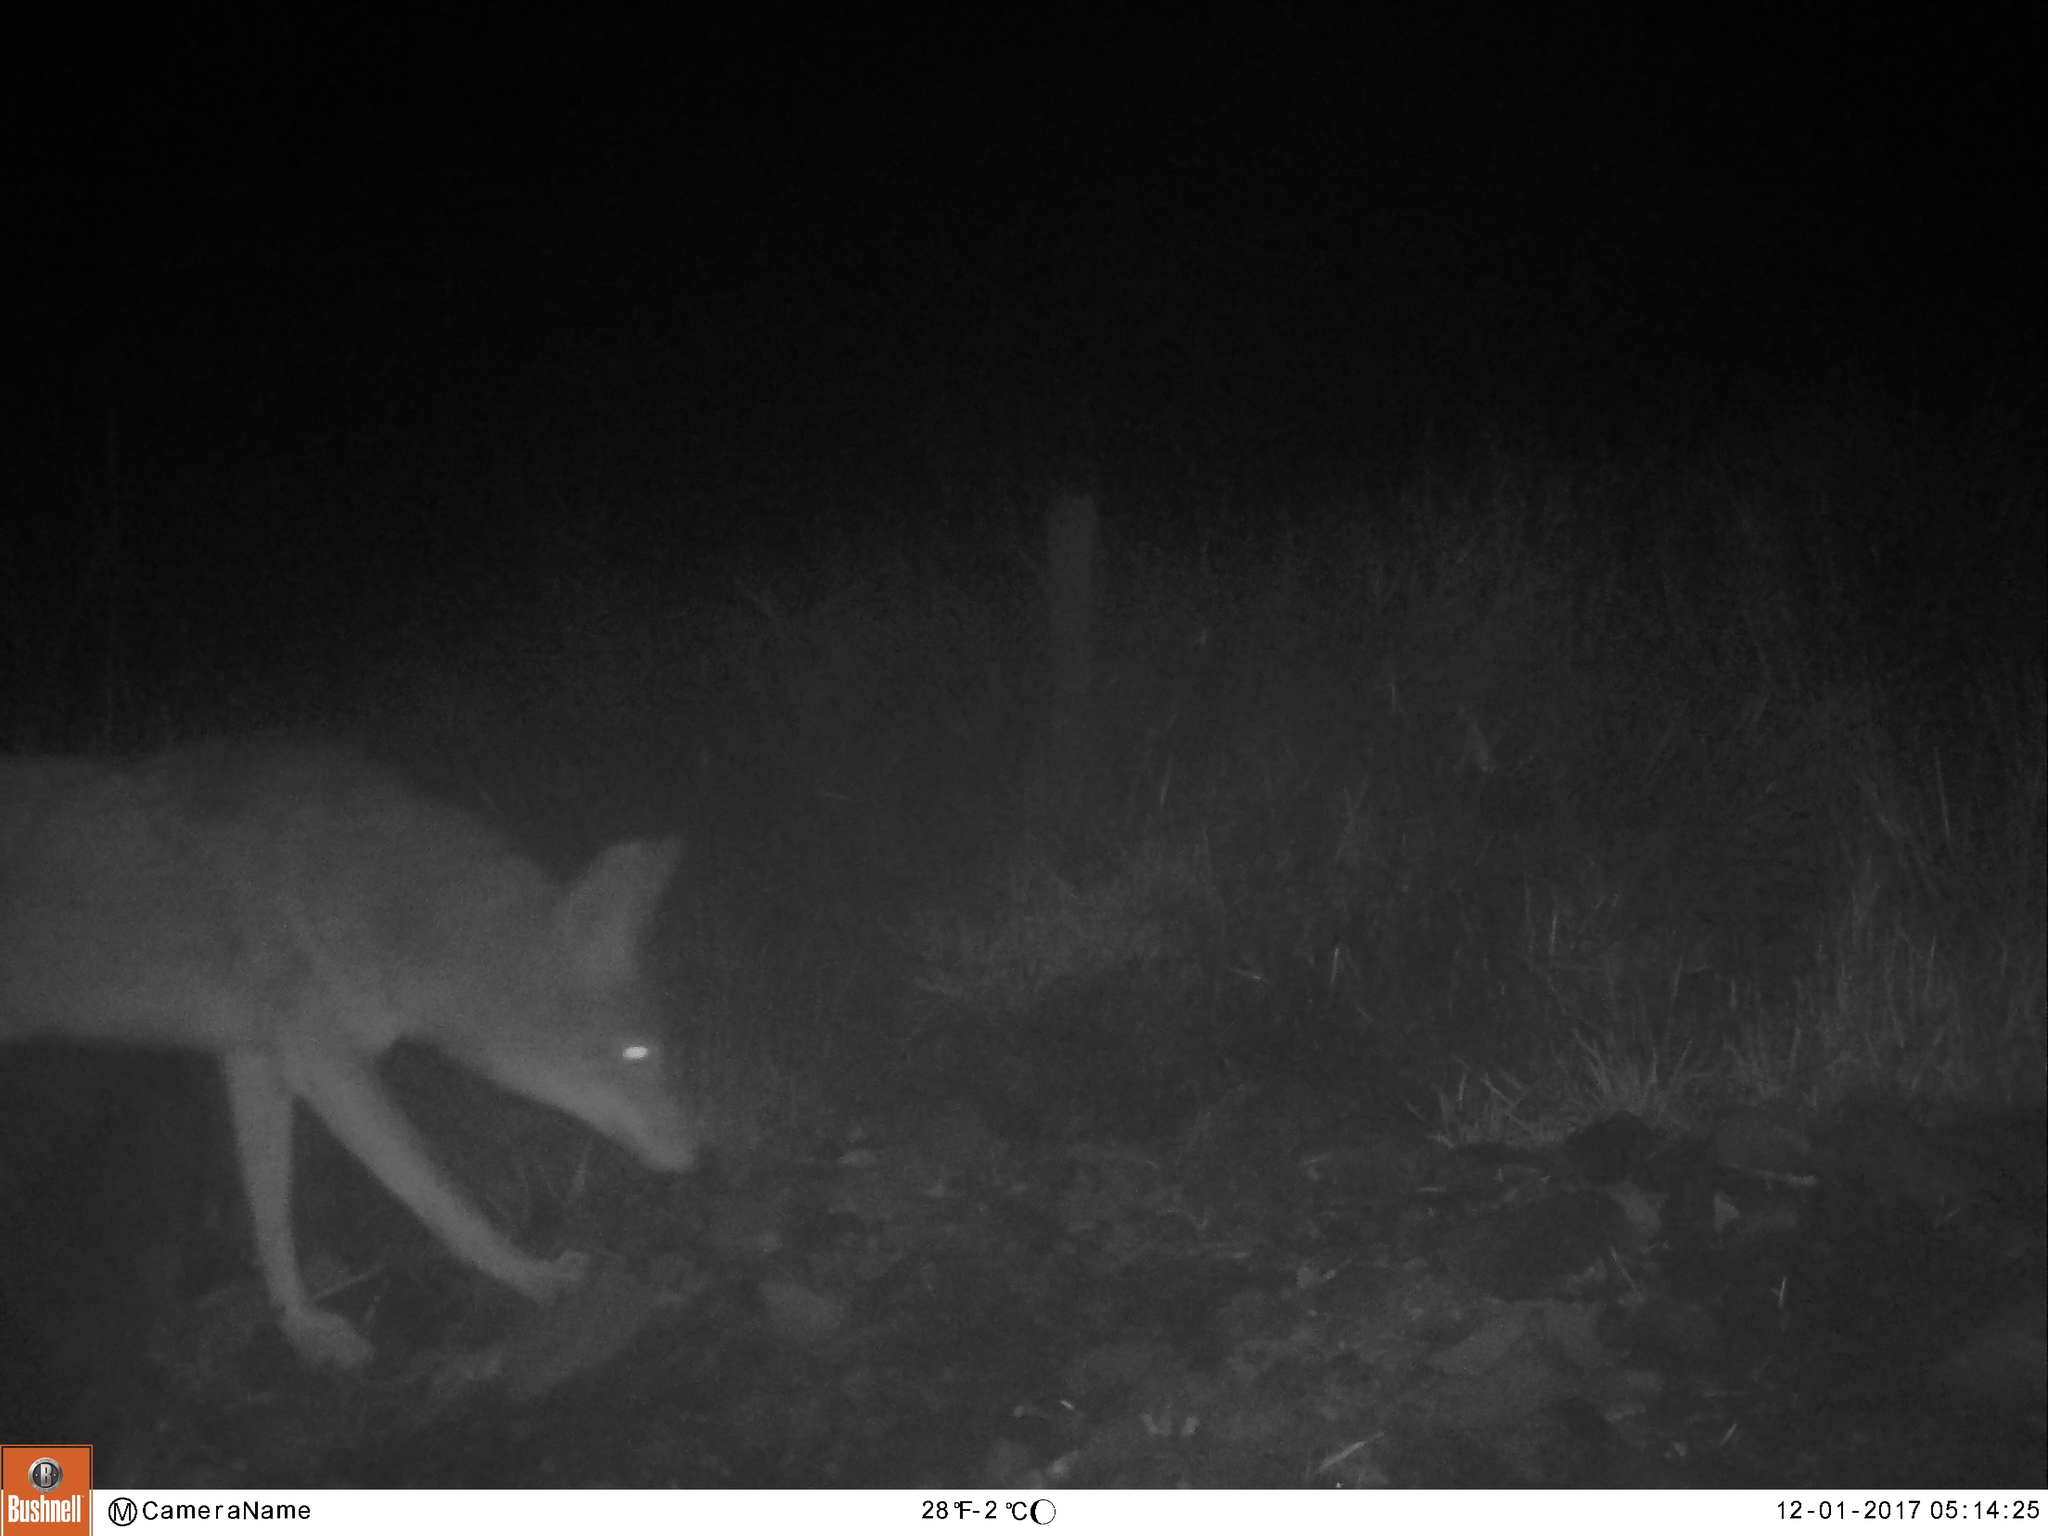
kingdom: Animalia
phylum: Chordata
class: Mammalia
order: Carnivora
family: Canidae
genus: Canis
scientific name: Canis latrans
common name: Coyote
